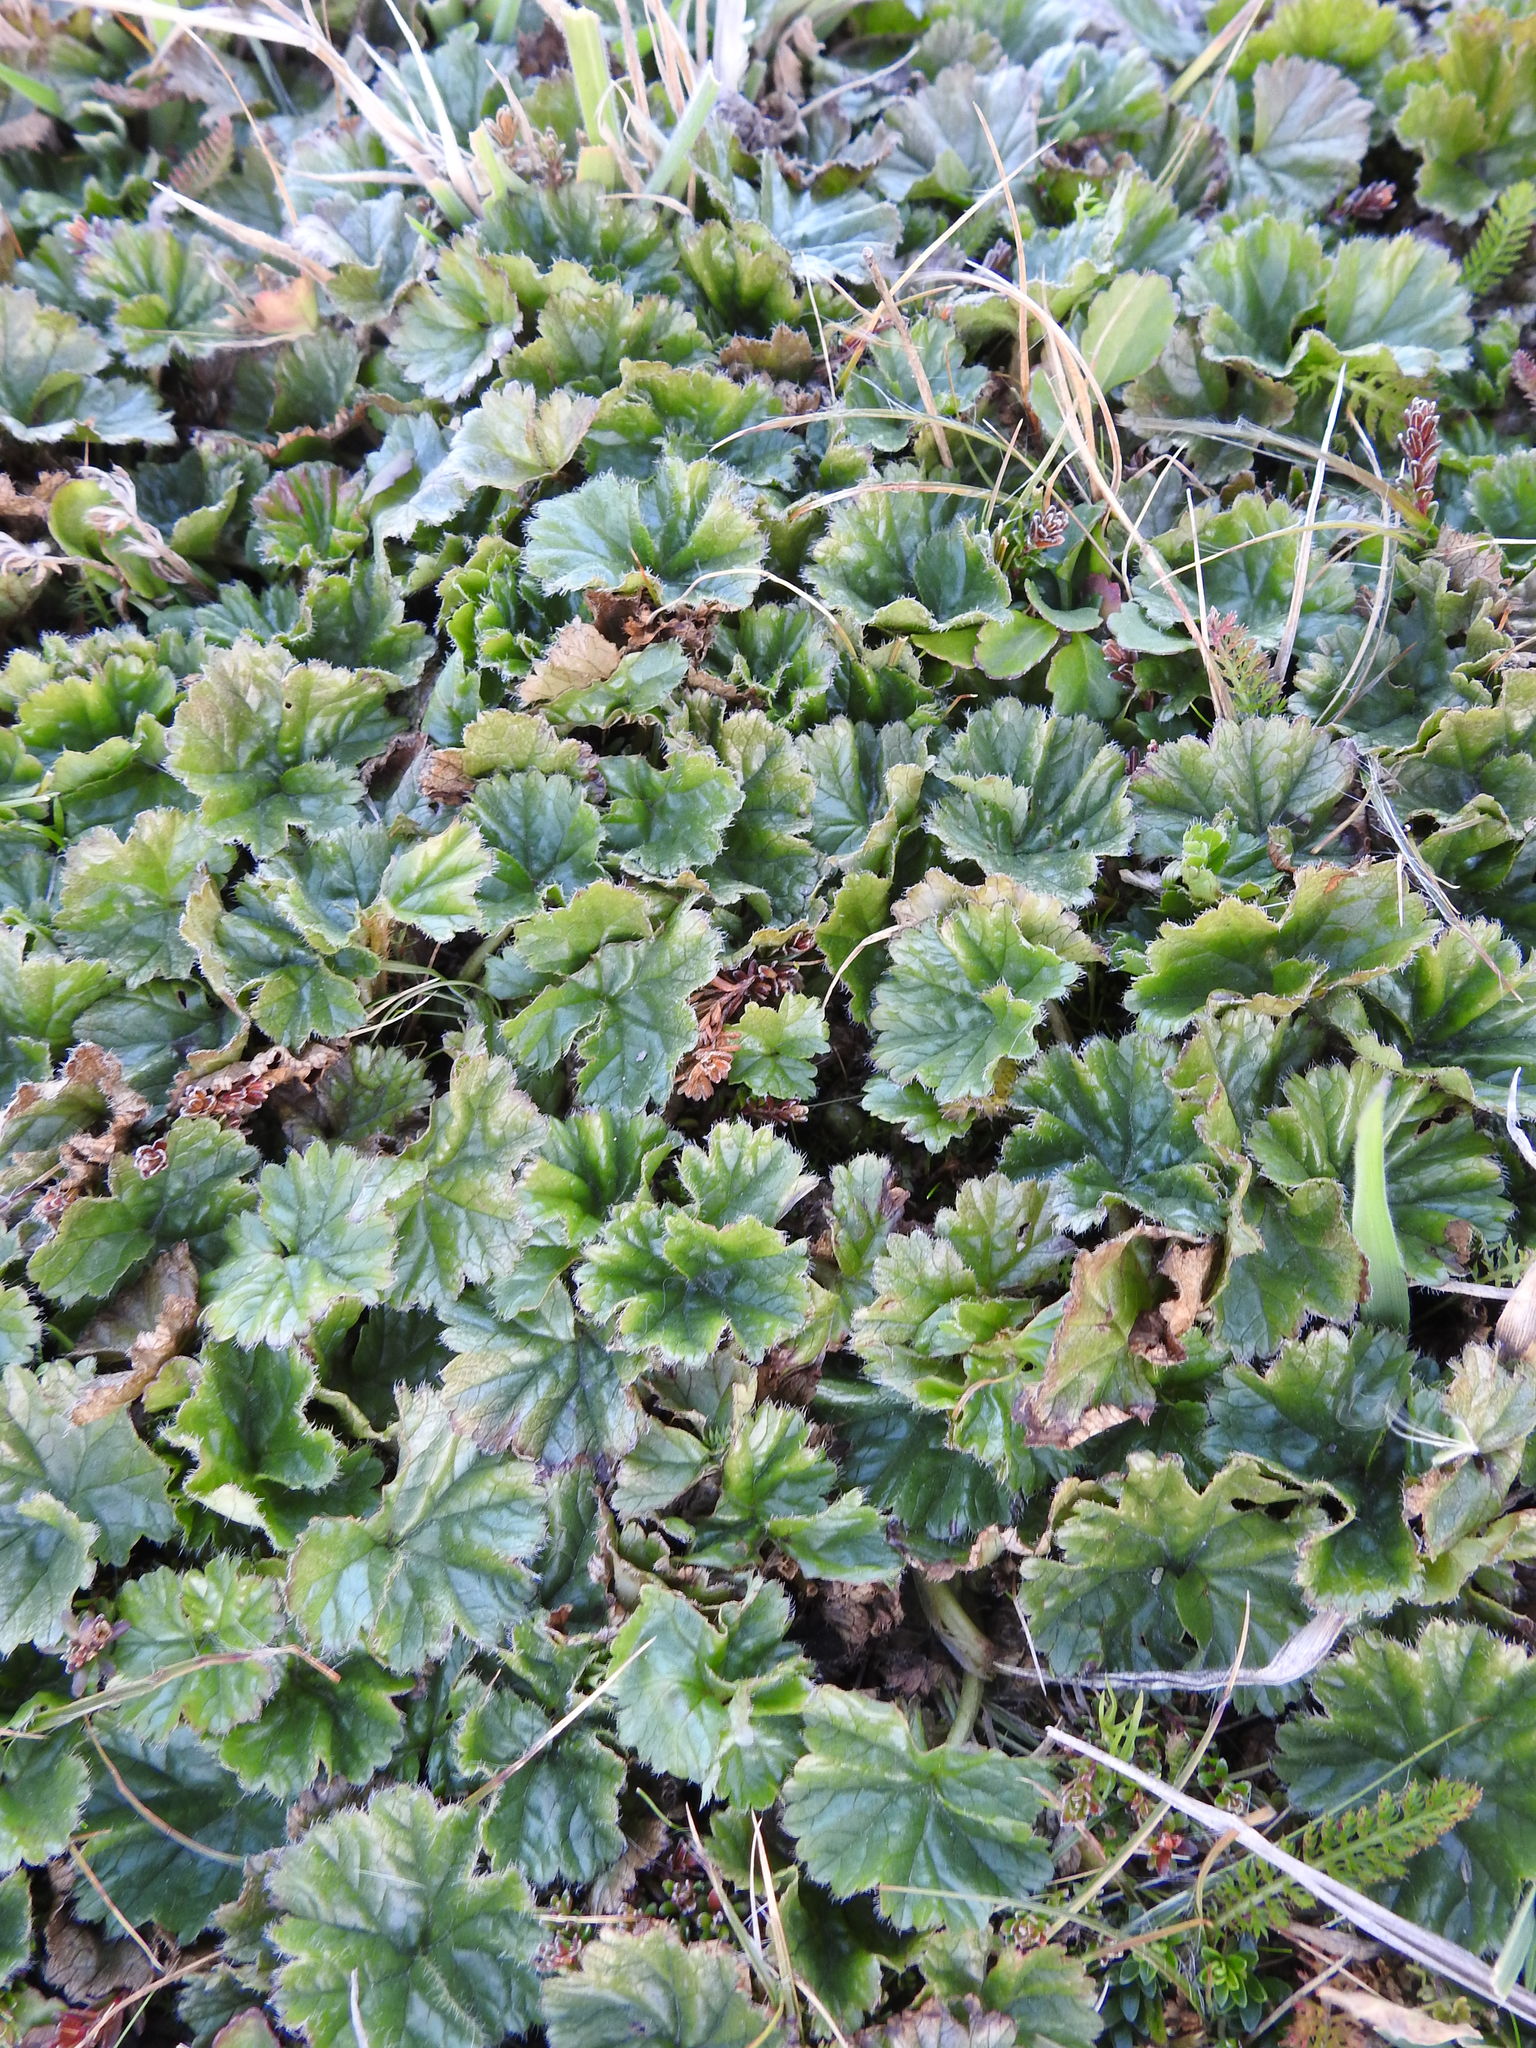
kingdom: Plantae
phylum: Tracheophyta
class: Magnoliopsida
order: Gunnerales
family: Gunneraceae
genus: Gunnera
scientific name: Gunnera magellanica
